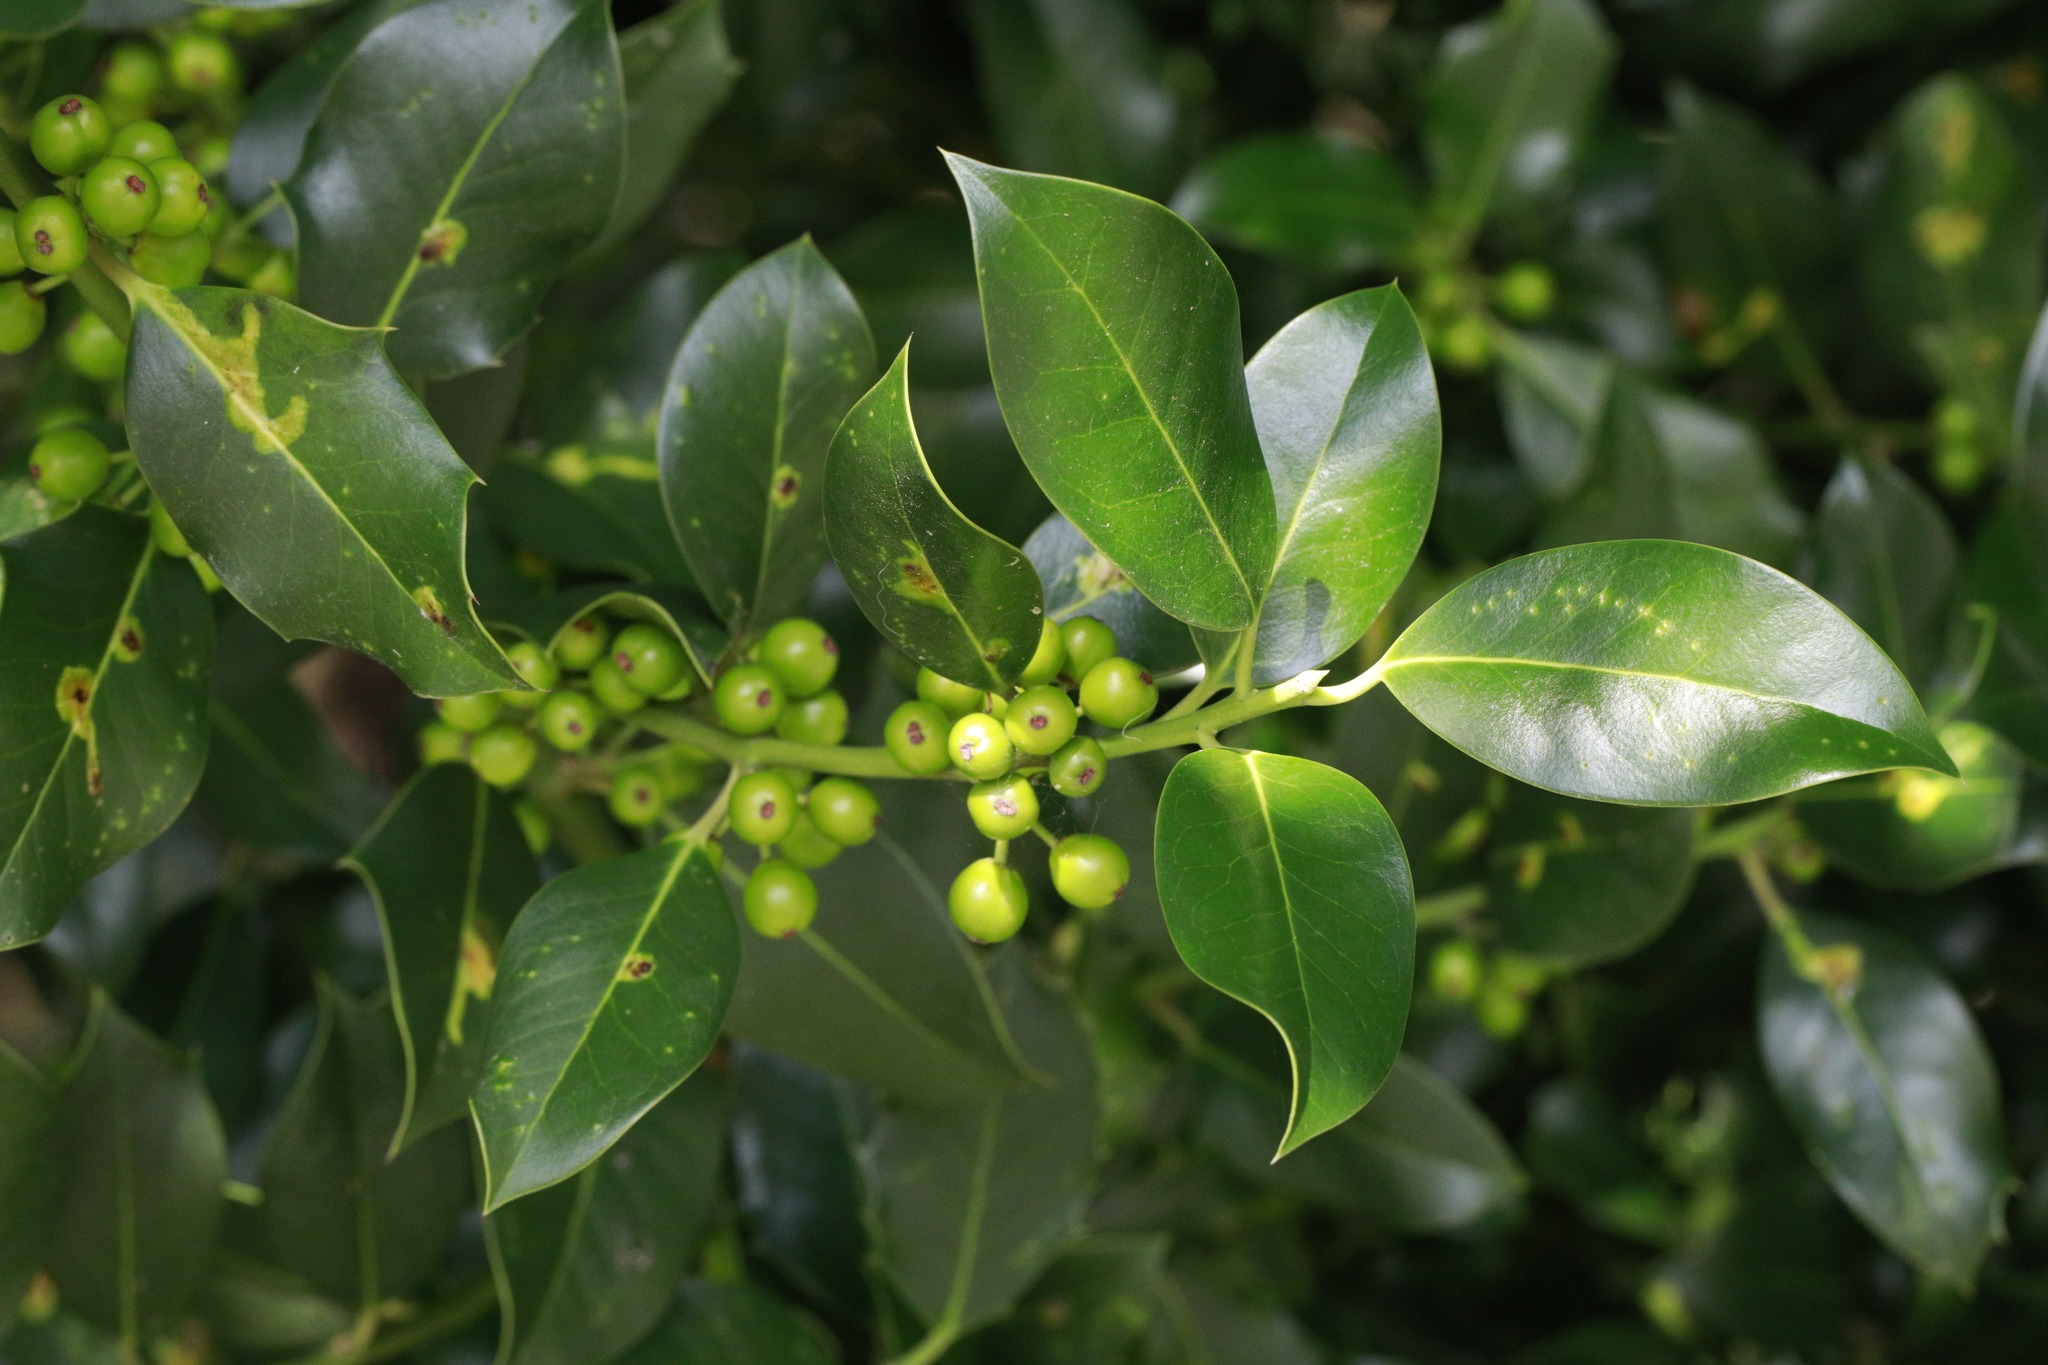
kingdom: Plantae
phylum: Tracheophyta
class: Magnoliopsida
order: Aquifoliales
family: Aquifoliaceae
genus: Ilex
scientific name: Ilex altaclerensis
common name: Highclere holly
